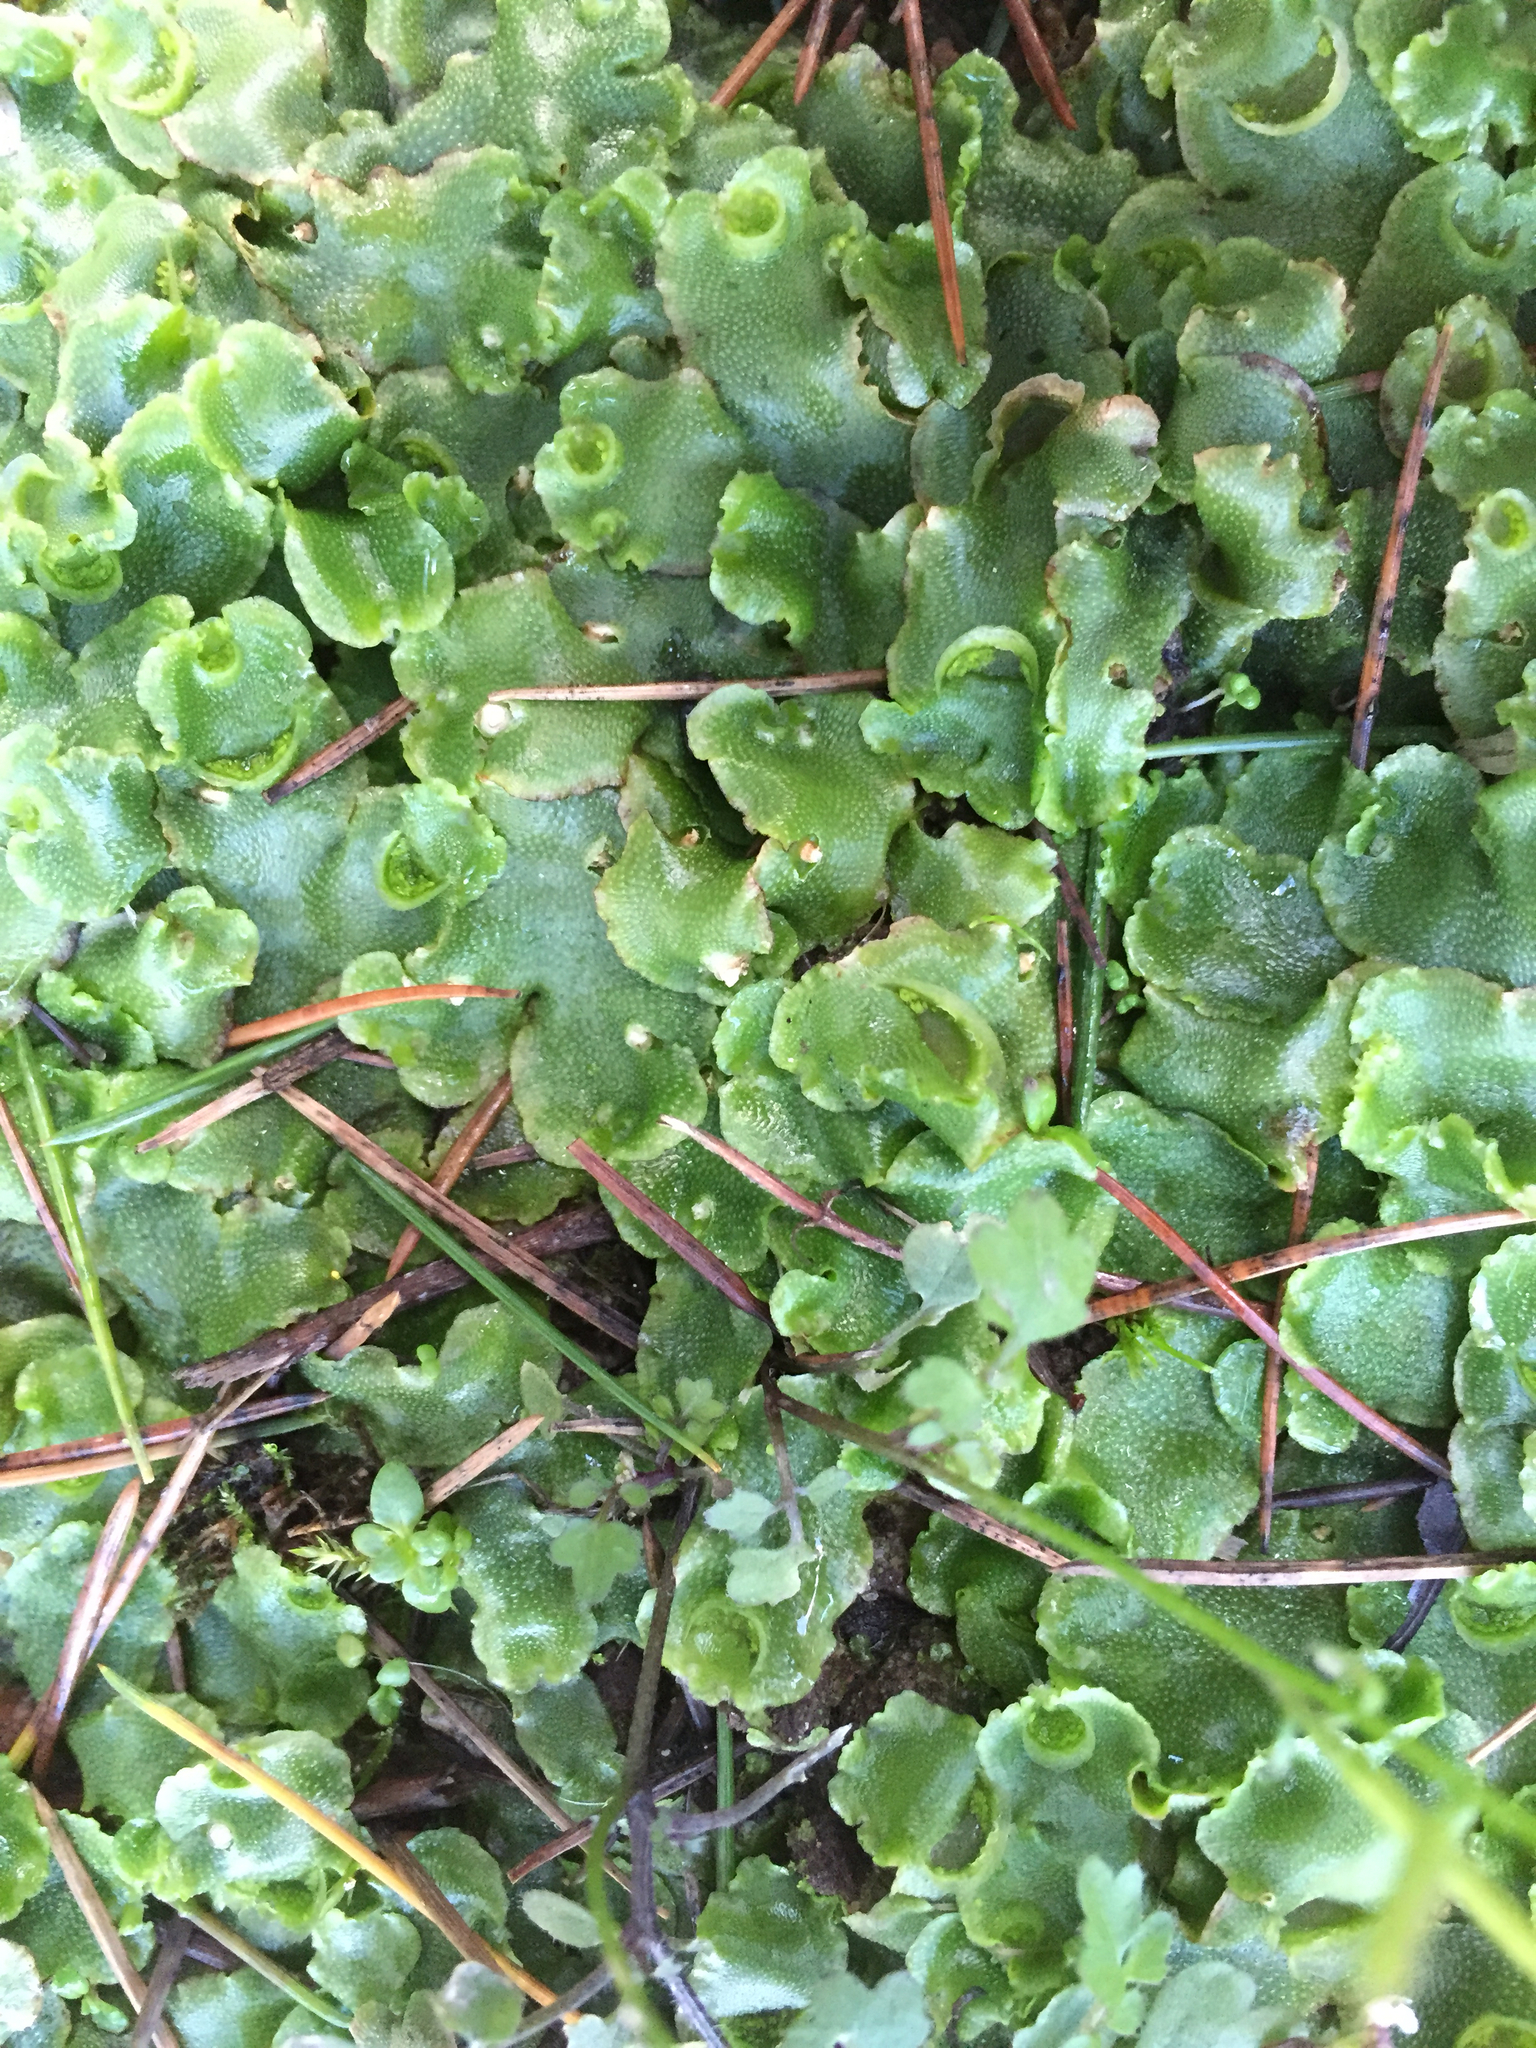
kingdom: Plantae
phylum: Marchantiophyta
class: Marchantiopsida
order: Lunulariales
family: Lunulariaceae
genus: Lunularia
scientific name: Lunularia cruciata
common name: Crescent-cup liverwort
